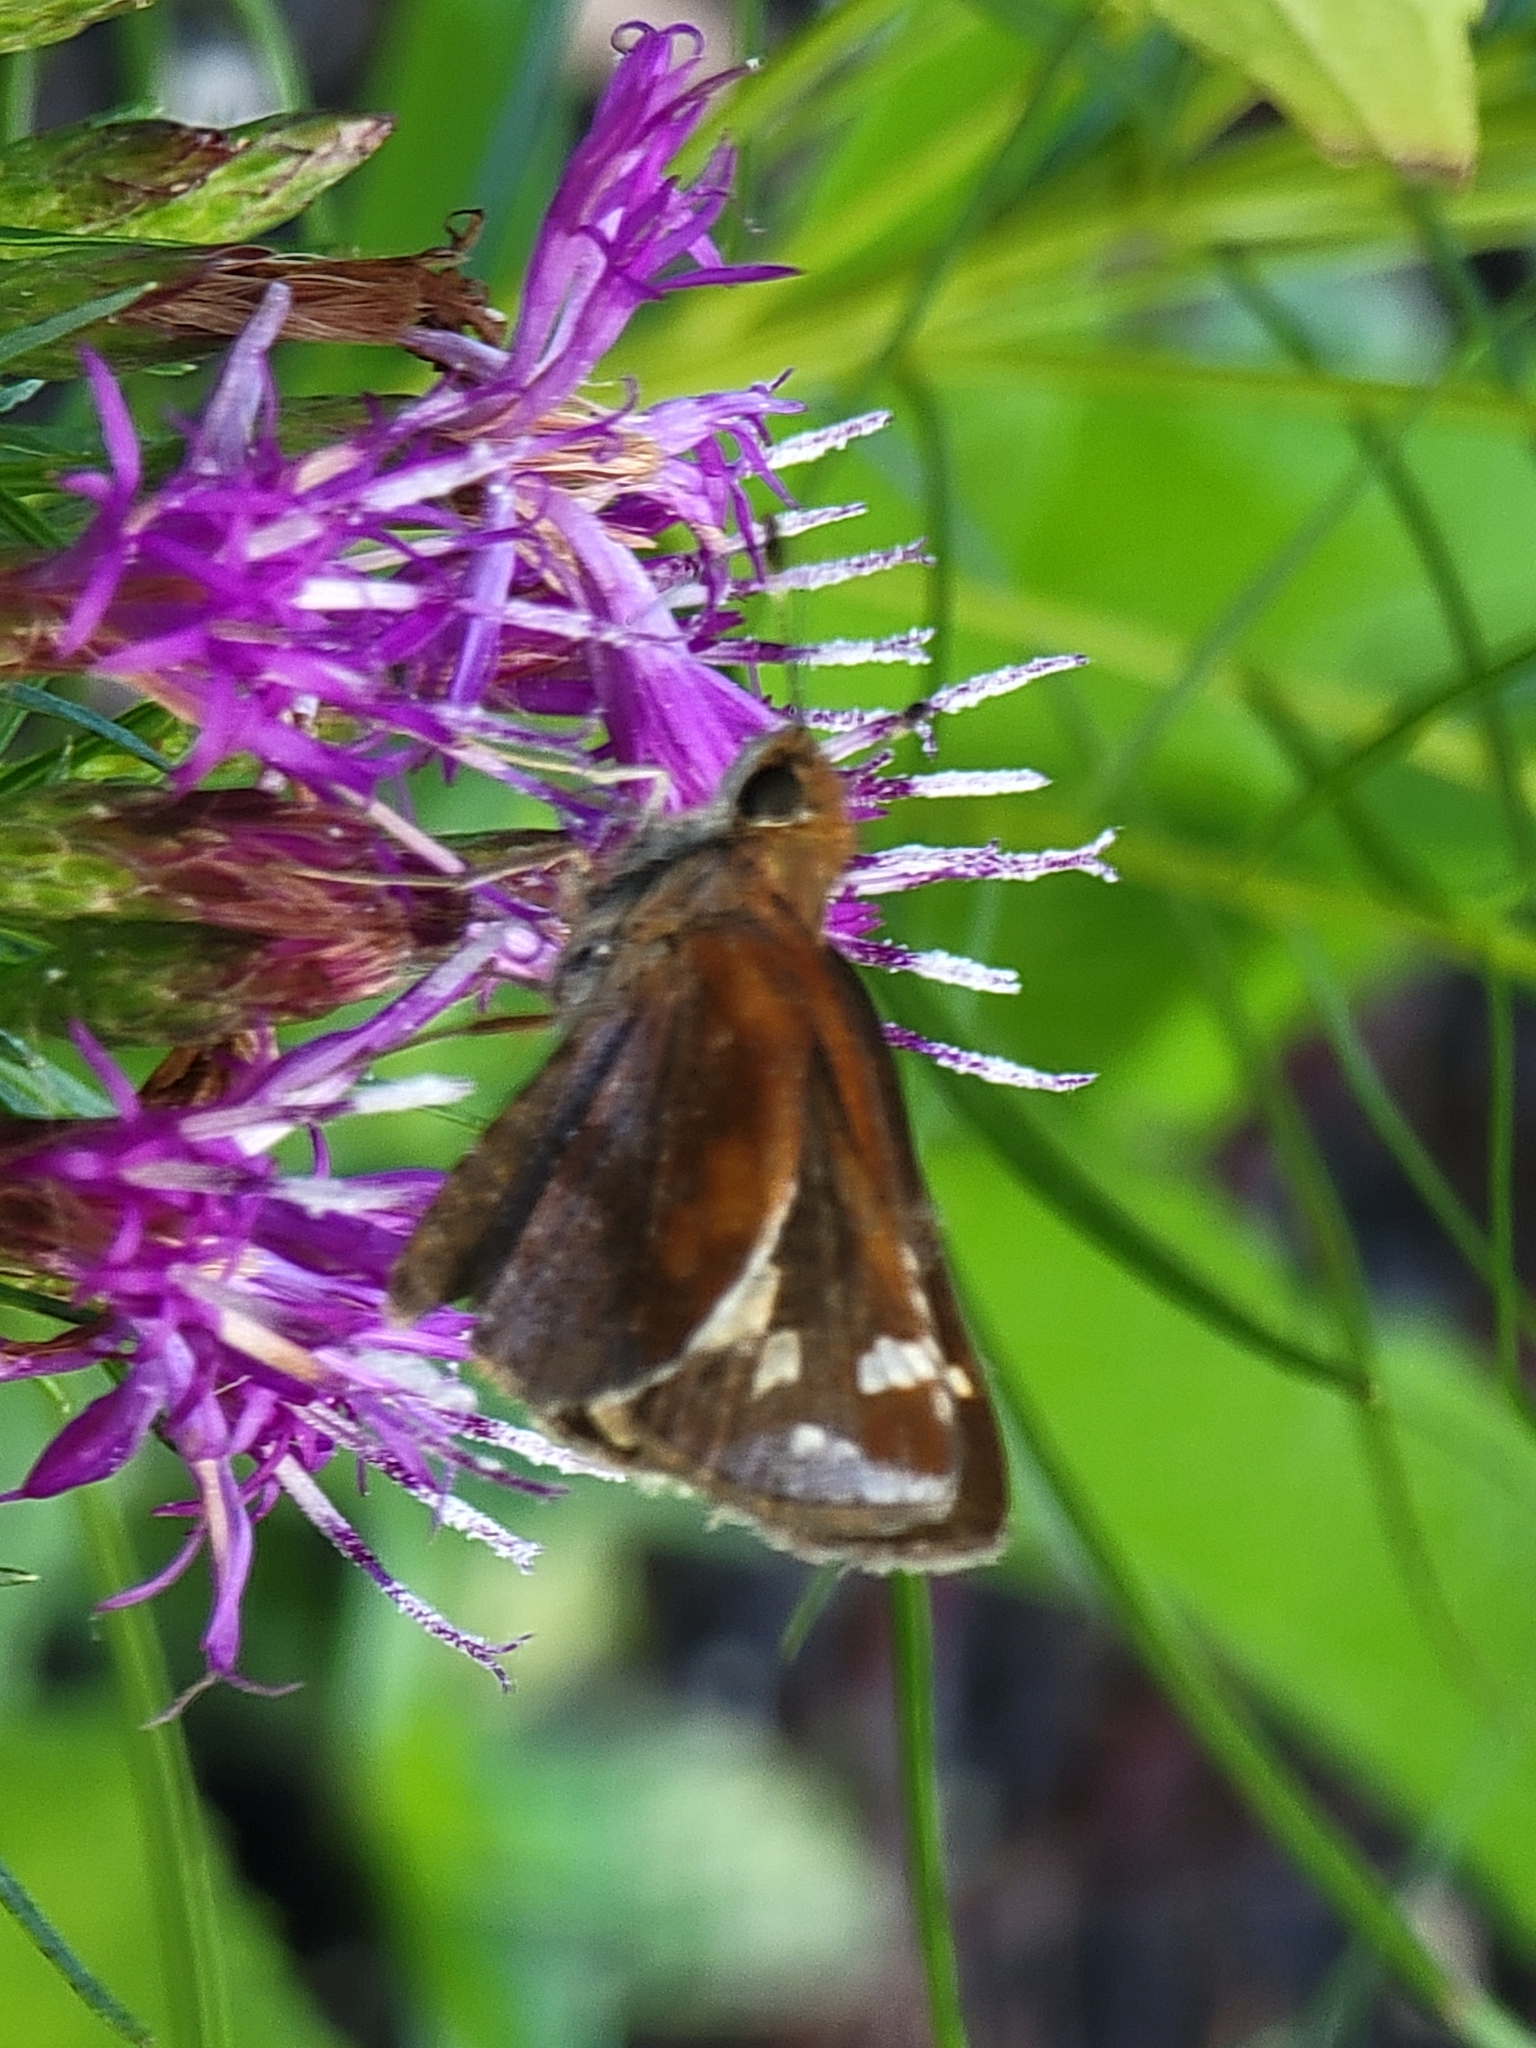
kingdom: Animalia
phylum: Arthropoda
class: Insecta
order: Lepidoptera
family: Hesperiidae
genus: Lon
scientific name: Lon zabulon
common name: Zabulon skipper
